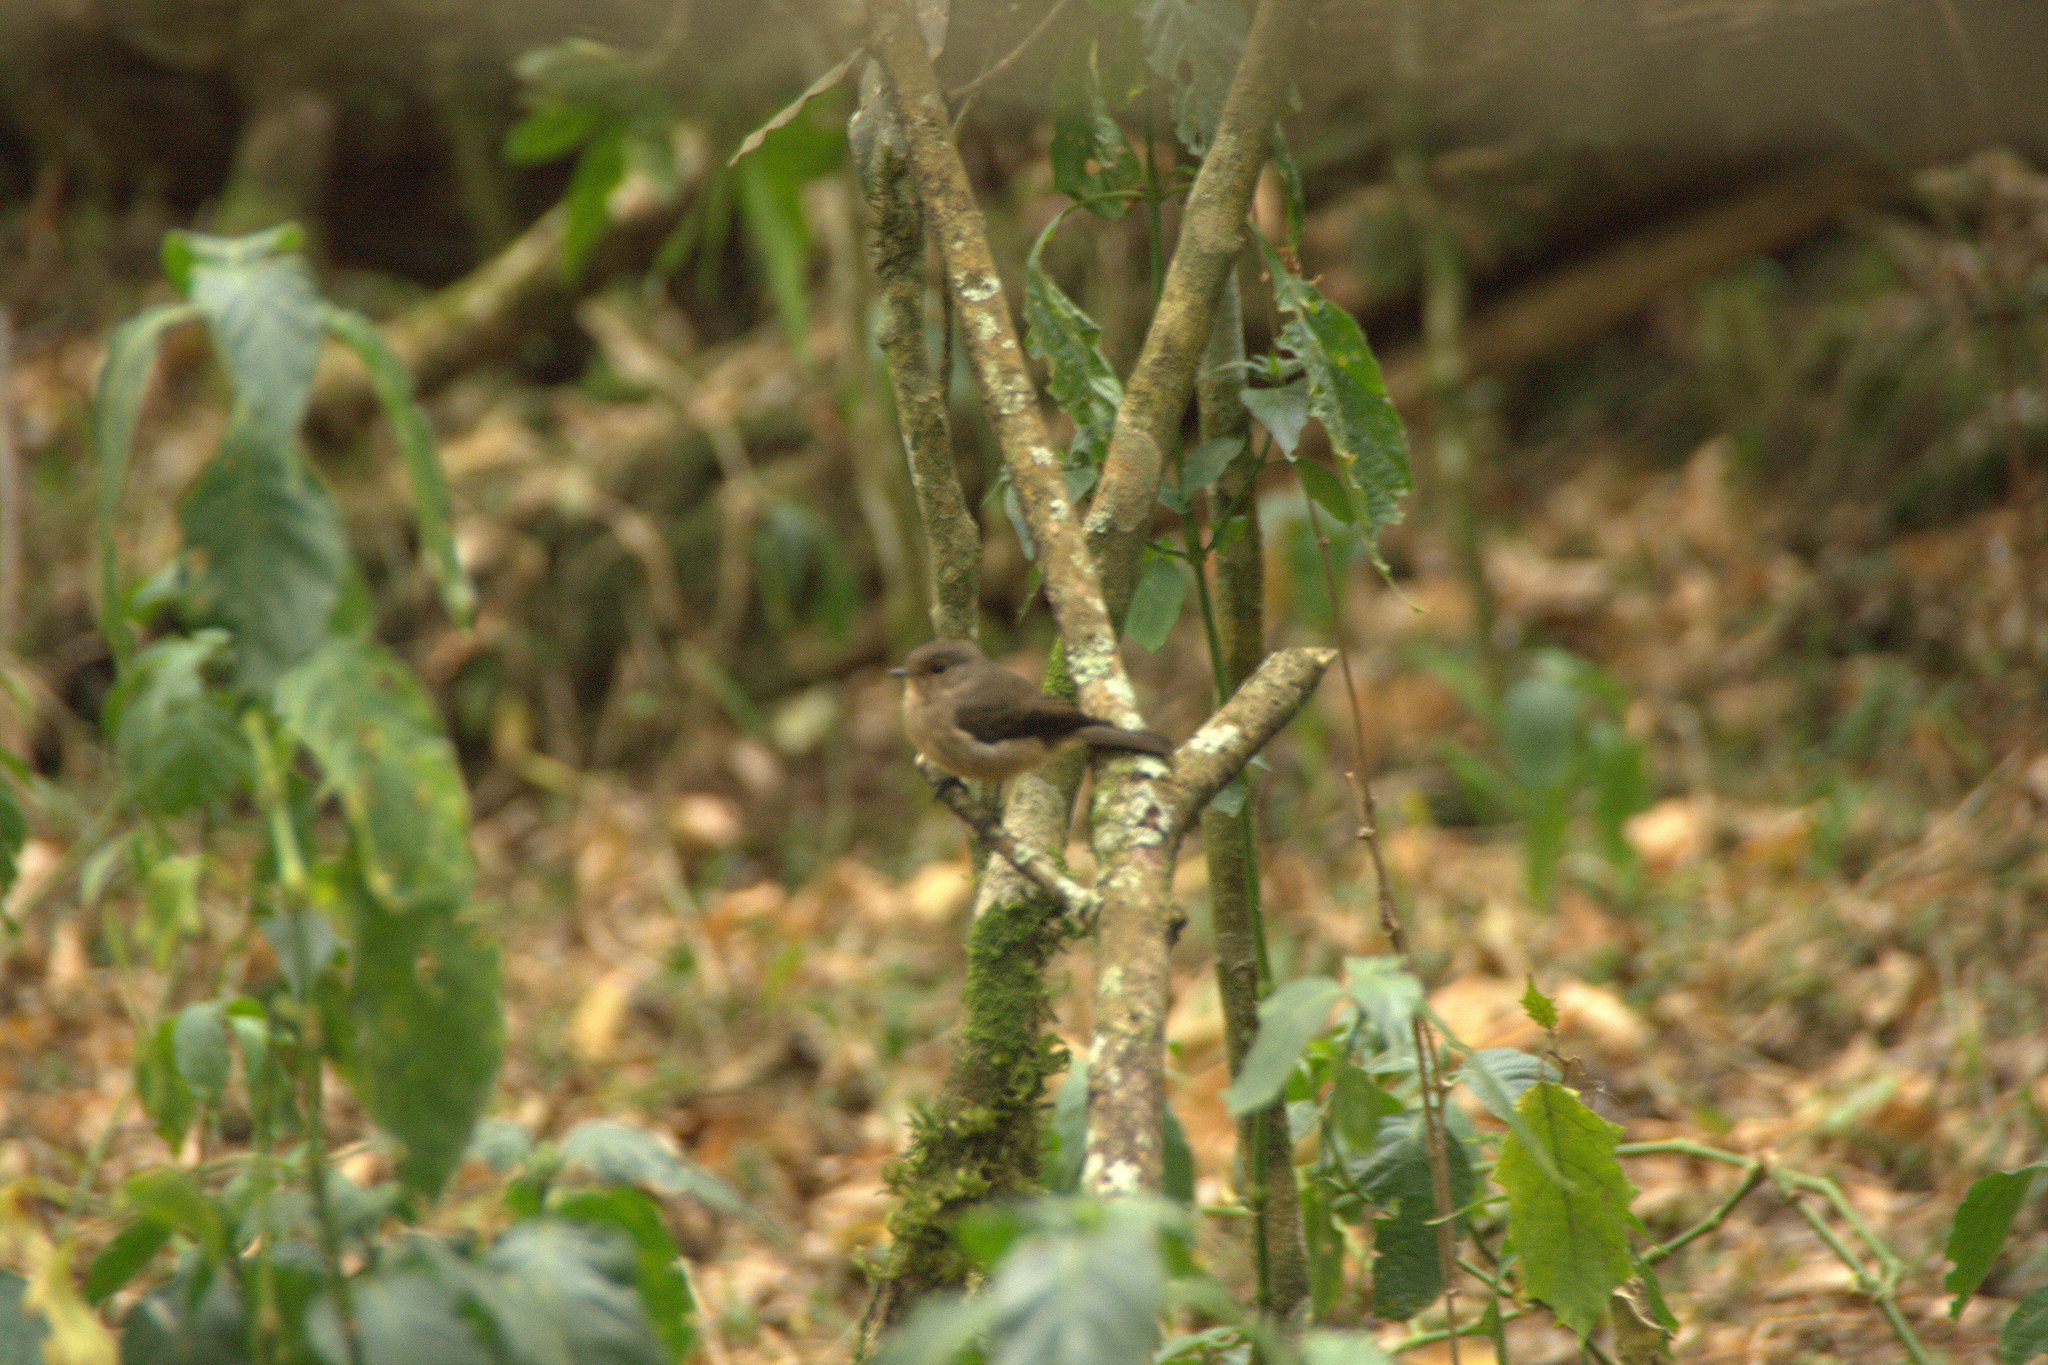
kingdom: Animalia
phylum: Chordata
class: Aves
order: Passeriformes
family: Muscicapidae
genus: Muscicapa
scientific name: Muscicapa adusta
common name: African dusky flycatcher
